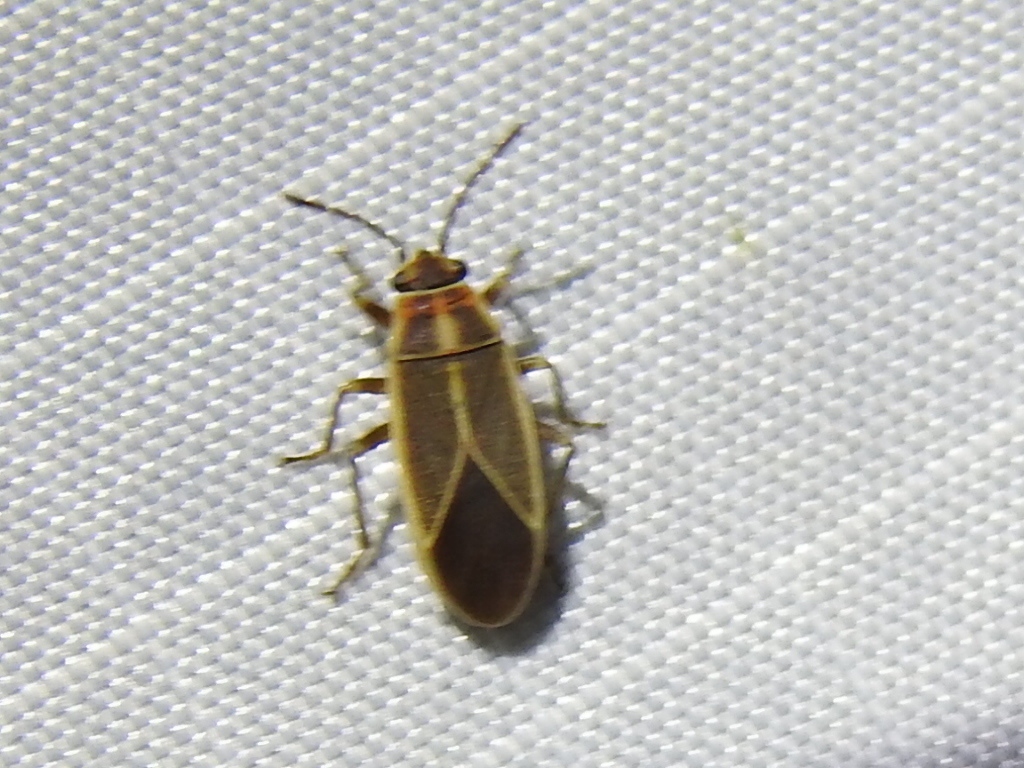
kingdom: Animalia
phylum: Arthropoda
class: Insecta
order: Hemiptera
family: Lygaeidae
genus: Ochrimnus
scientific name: Ochrimnus mimulus
